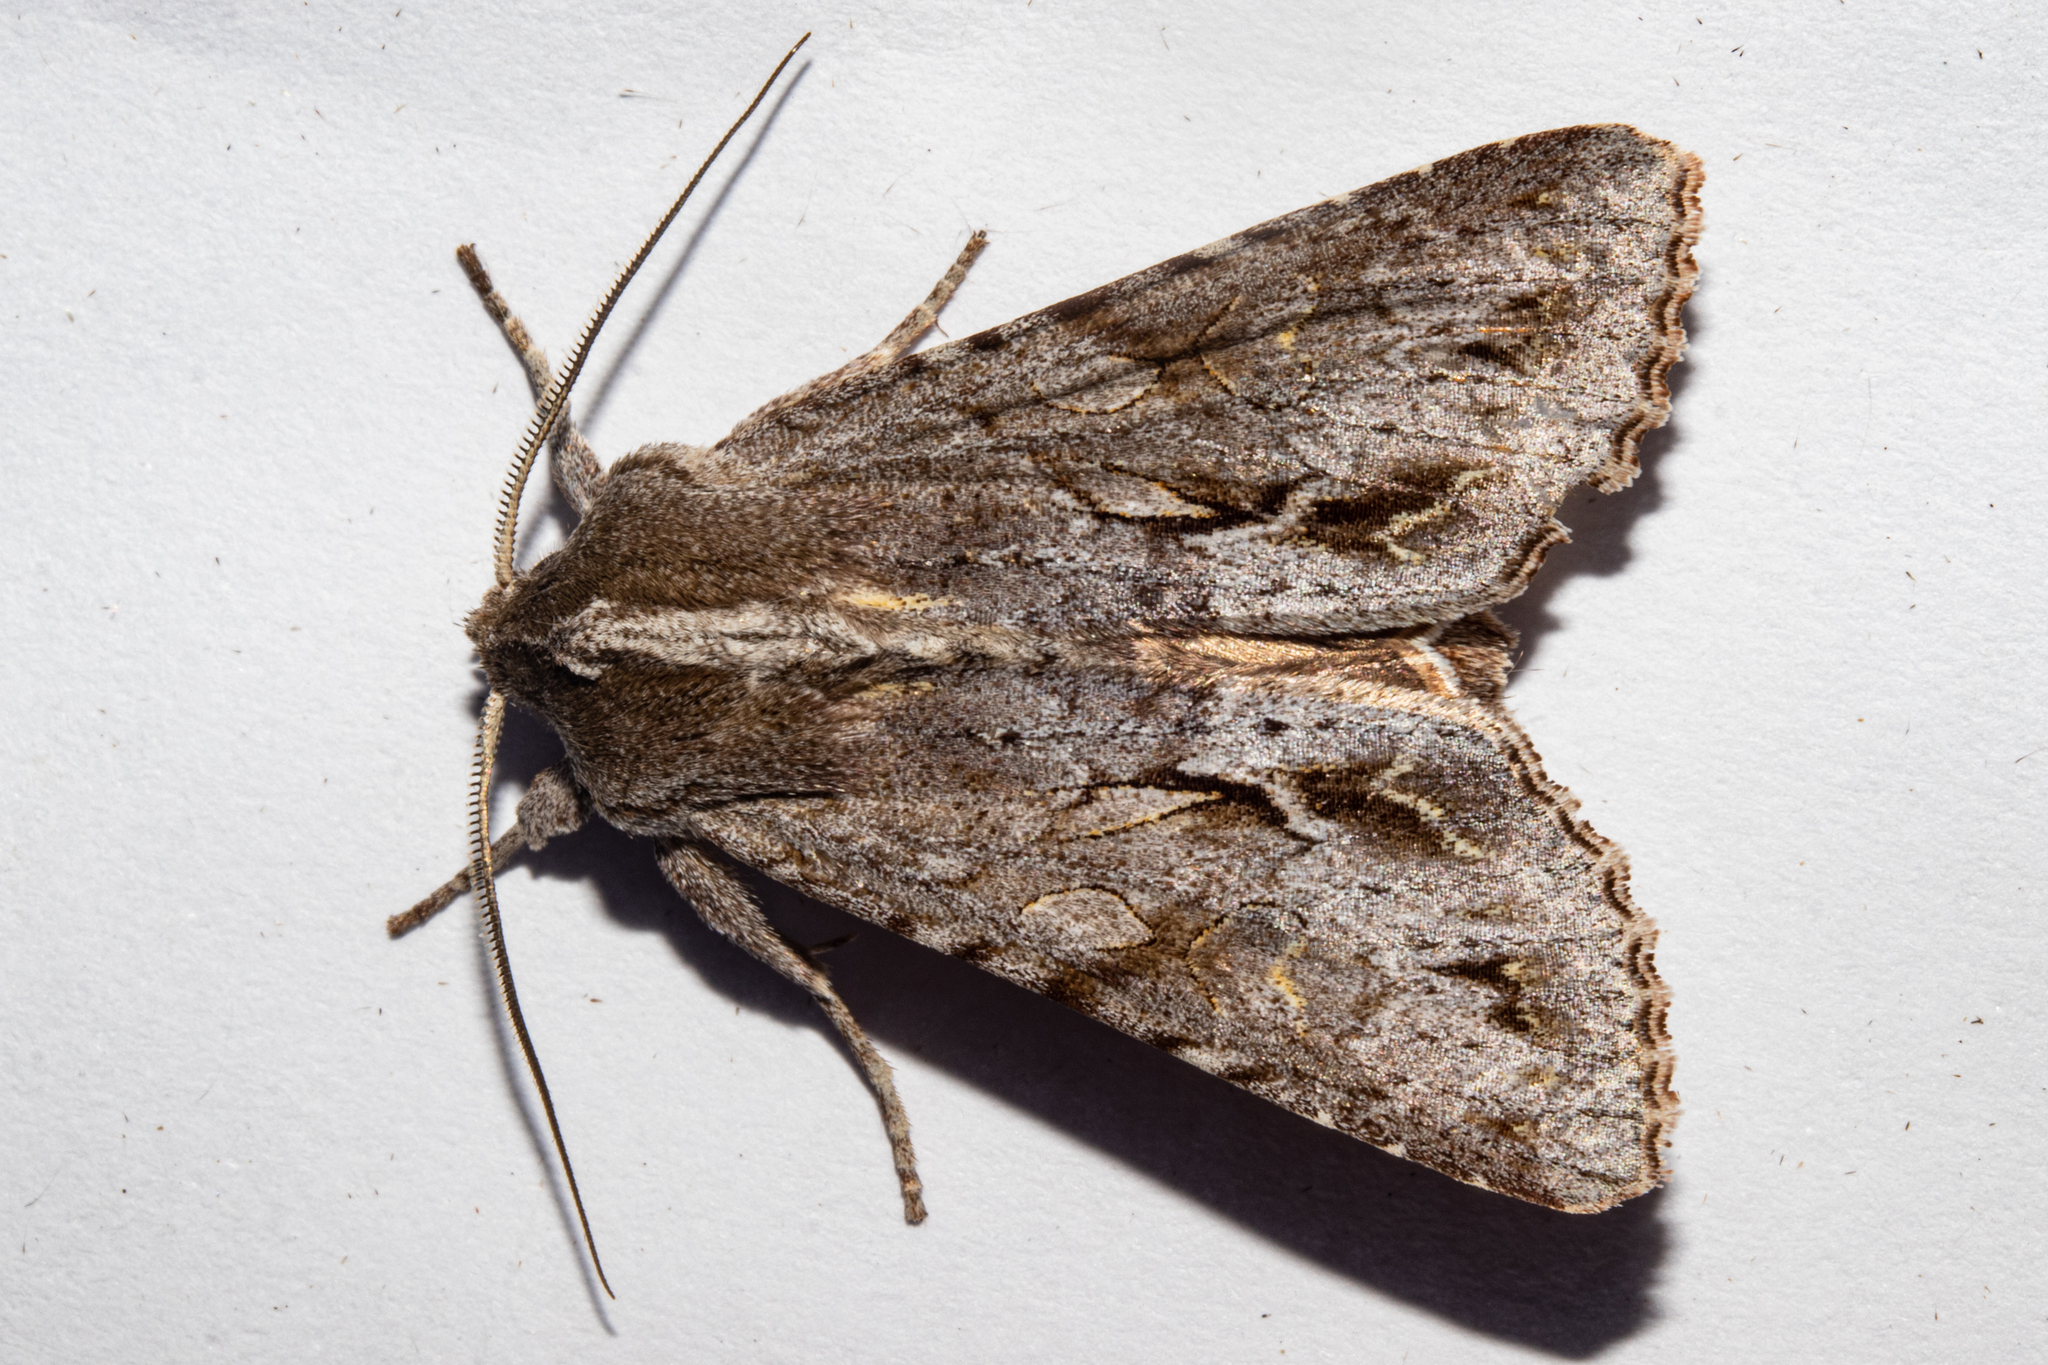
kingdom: Animalia
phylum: Arthropoda
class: Insecta
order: Lepidoptera
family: Noctuidae
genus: Ichneutica
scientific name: Ichneutica
